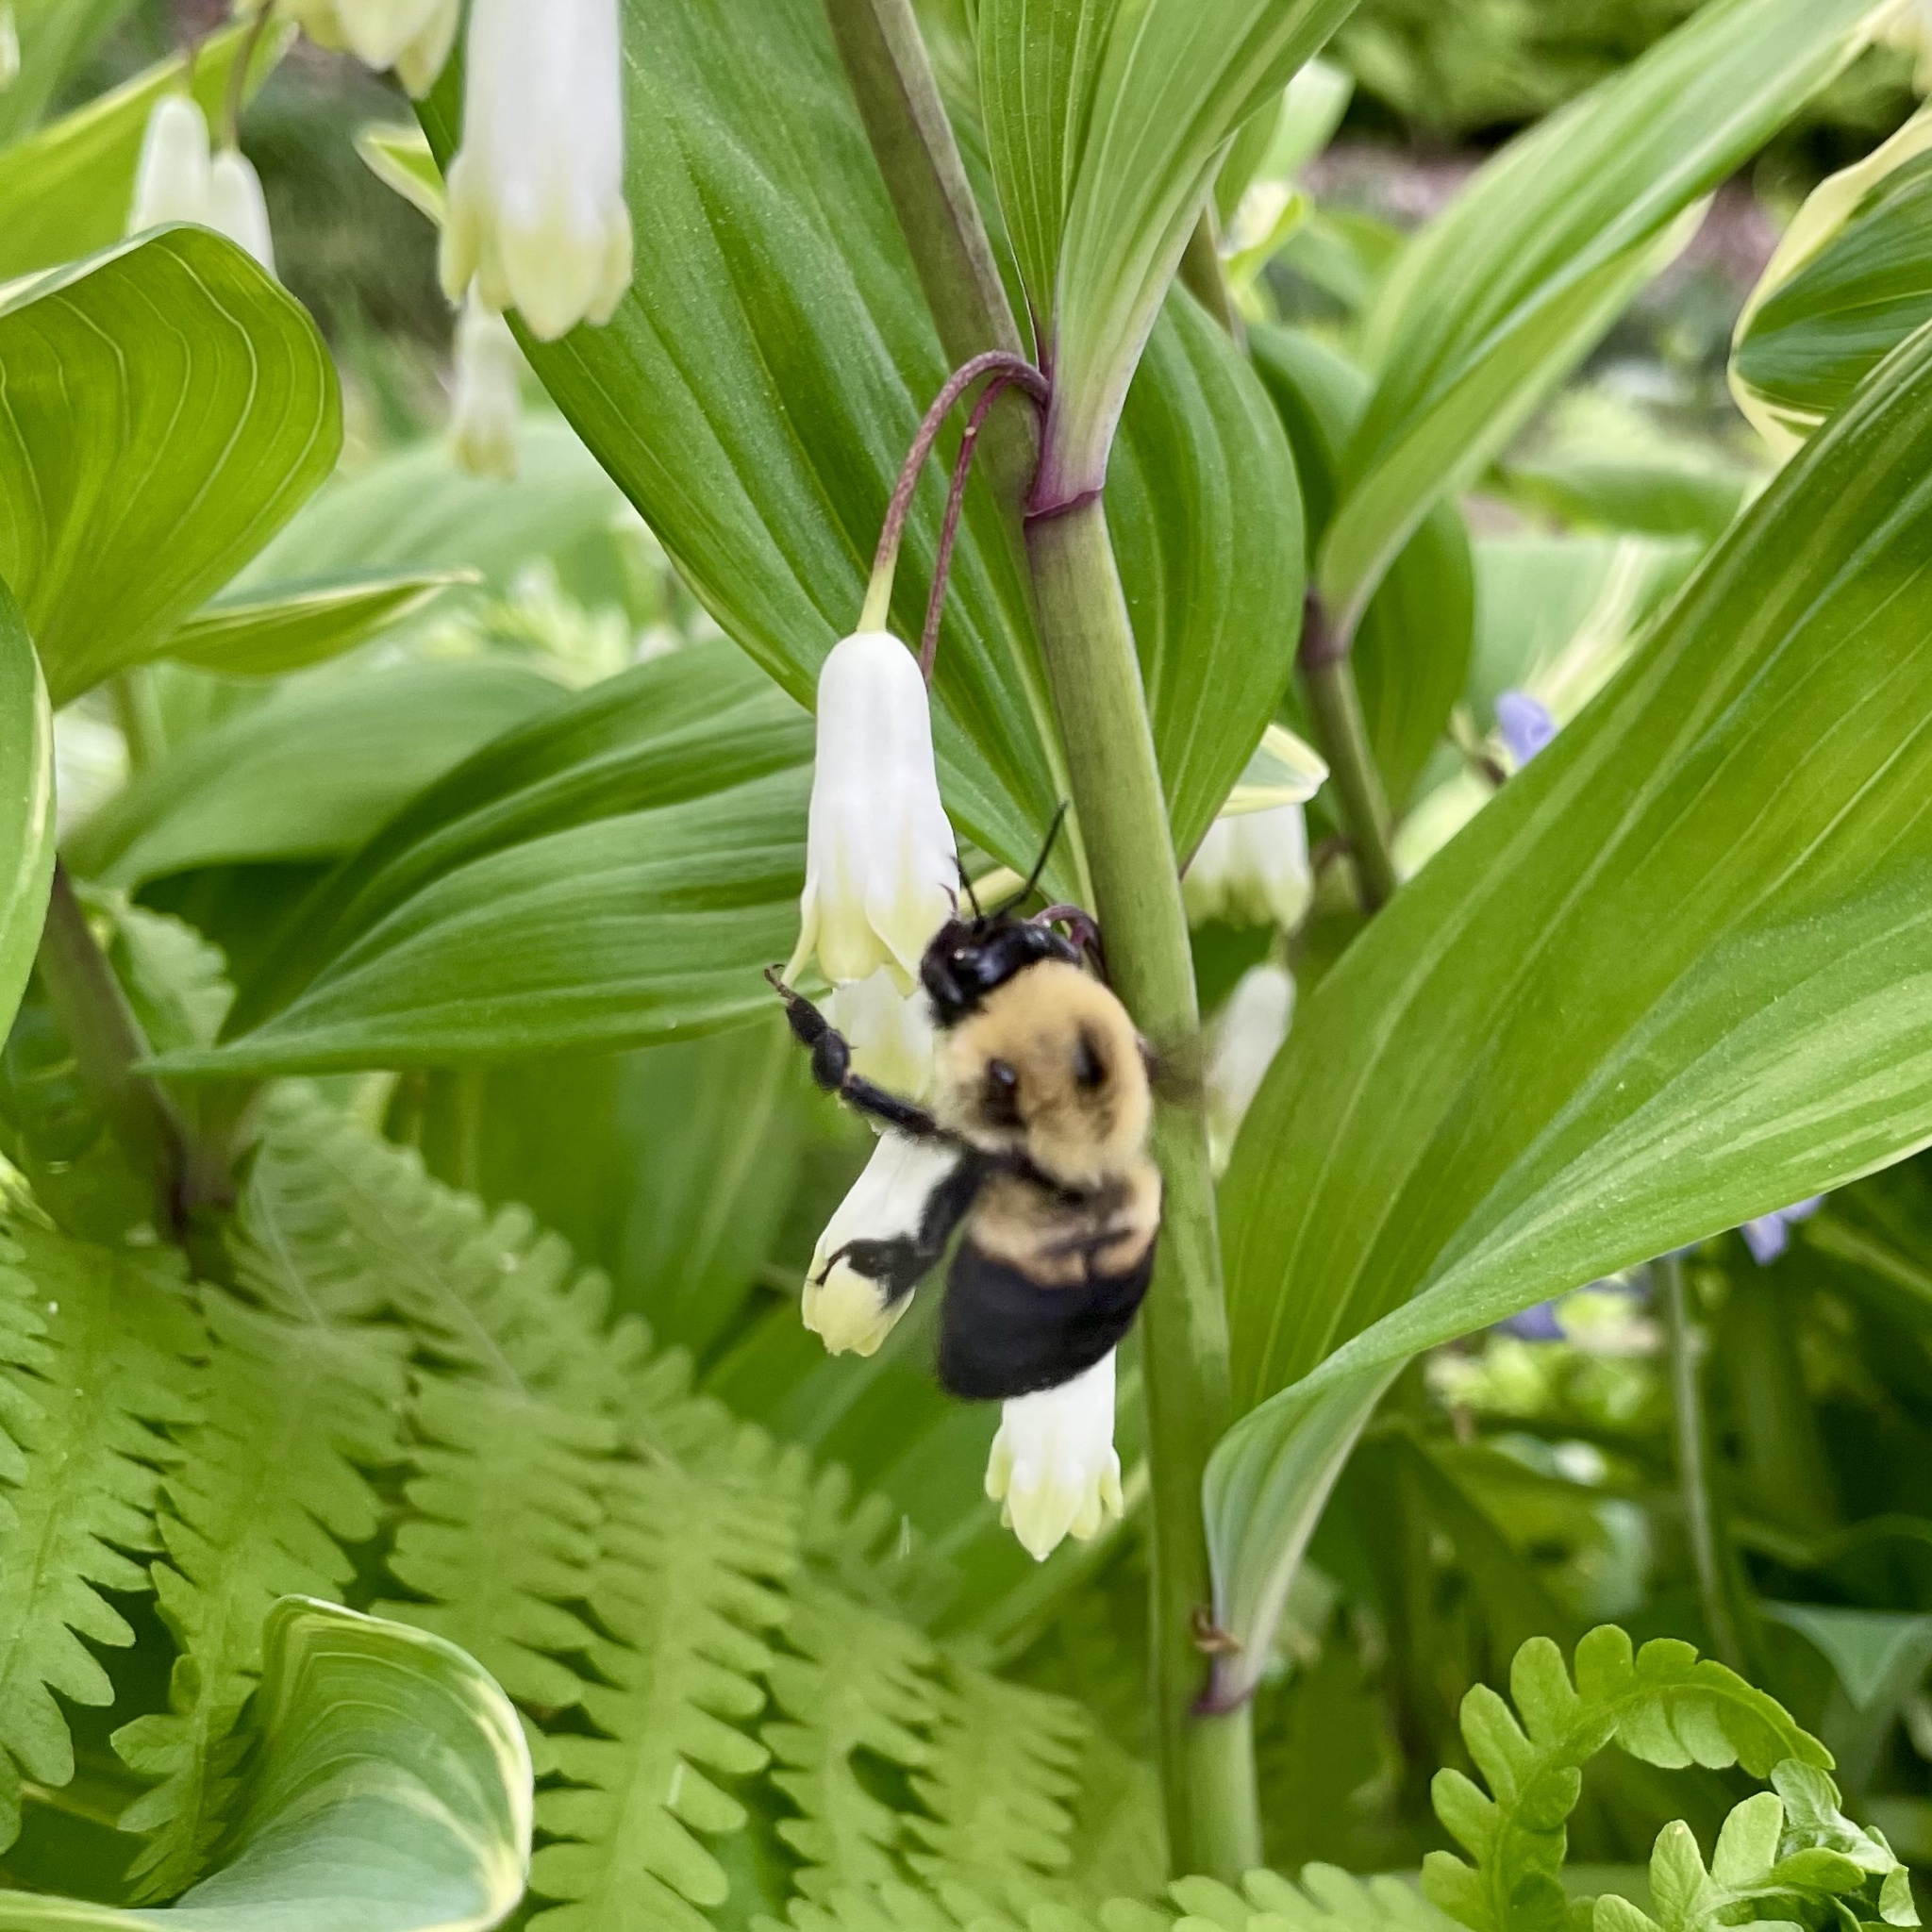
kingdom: Animalia
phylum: Arthropoda
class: Insecta
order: Hymenoptera
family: Apidae
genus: Bombus
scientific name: Bombus griseocollis
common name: Brown-belted bumble bee
